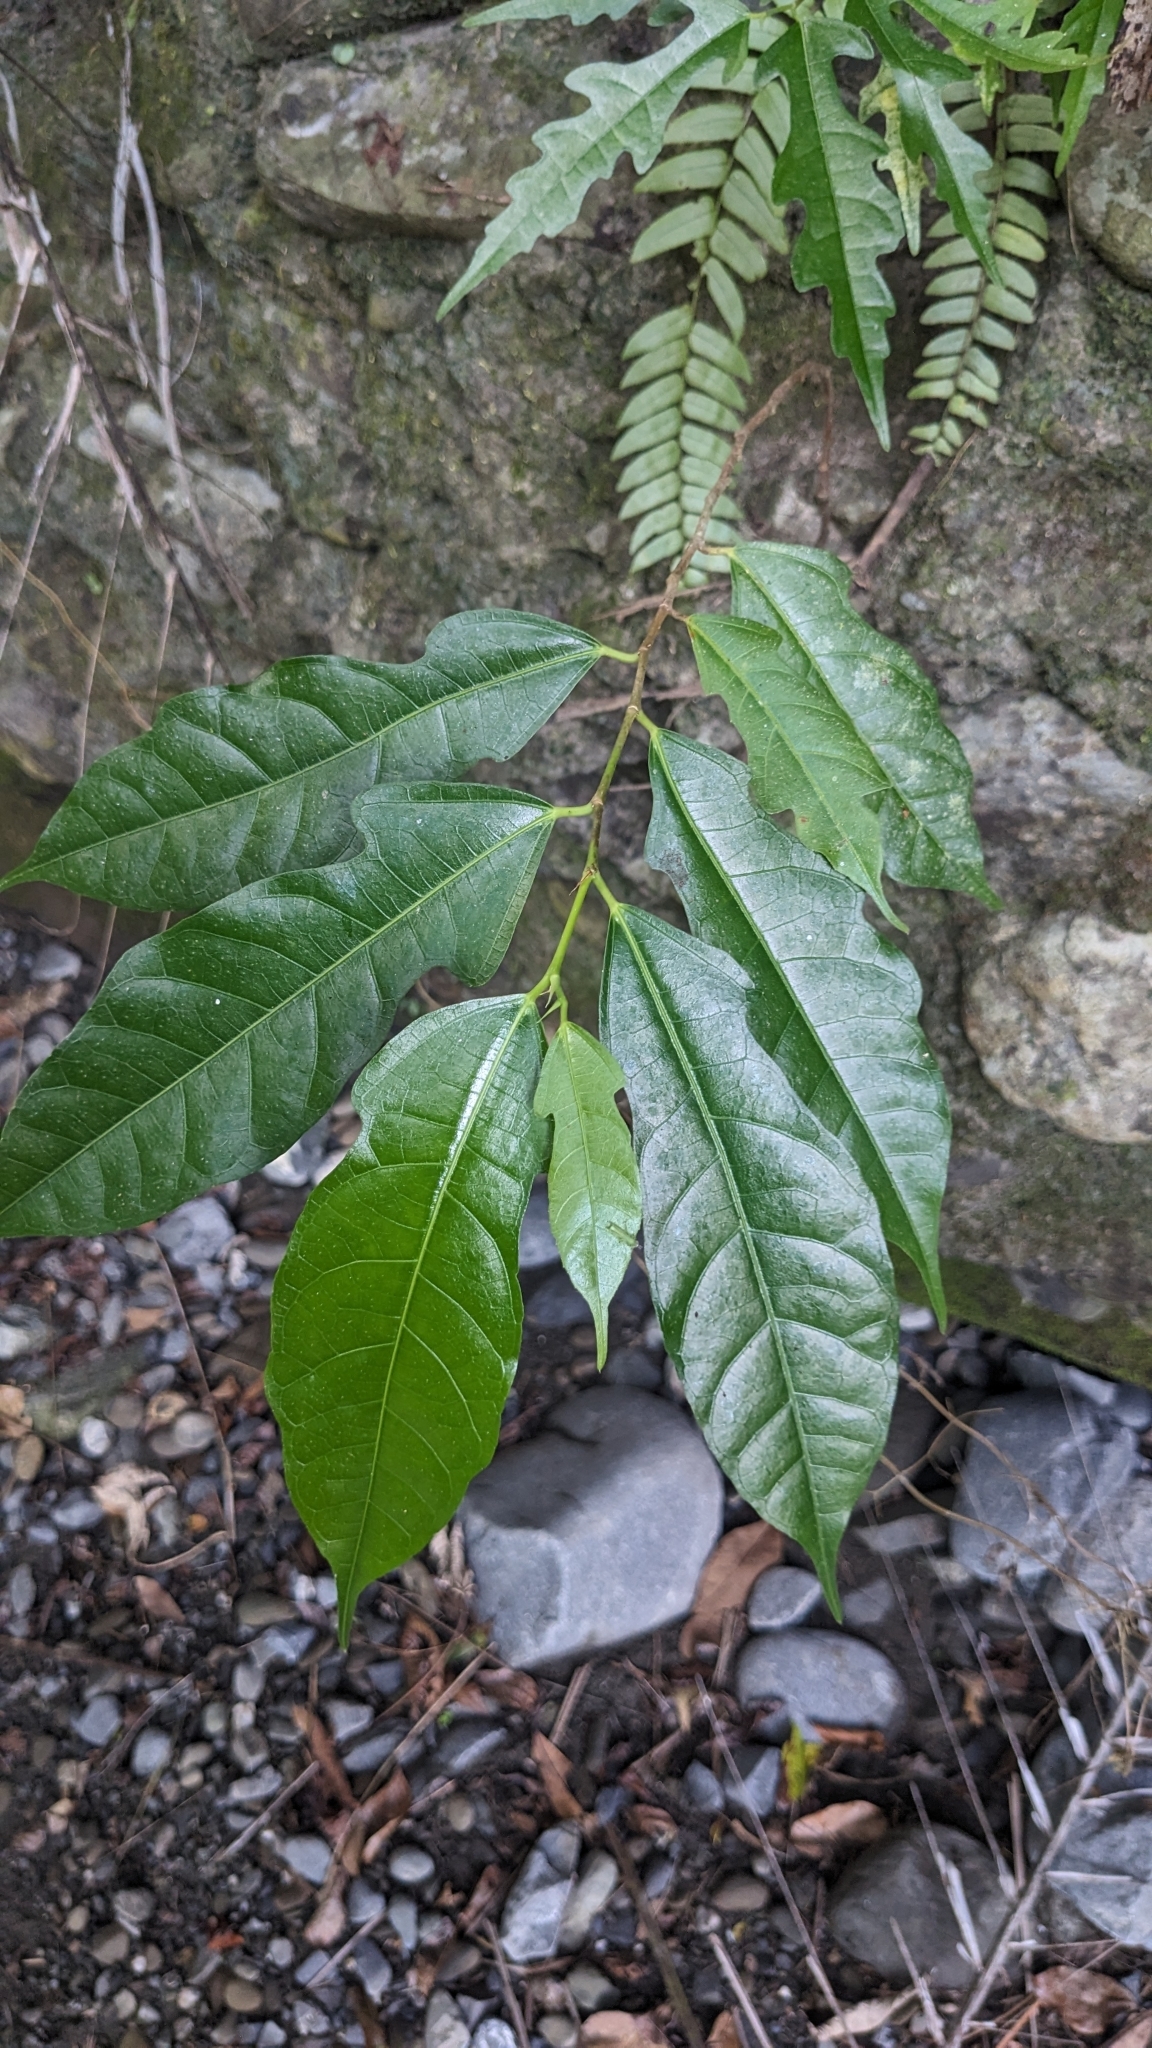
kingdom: Plantae
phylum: Tracheophyta
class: Magnoliopsida
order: Rosales
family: Moraceae
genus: Ficus
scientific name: Ficus ampelos
